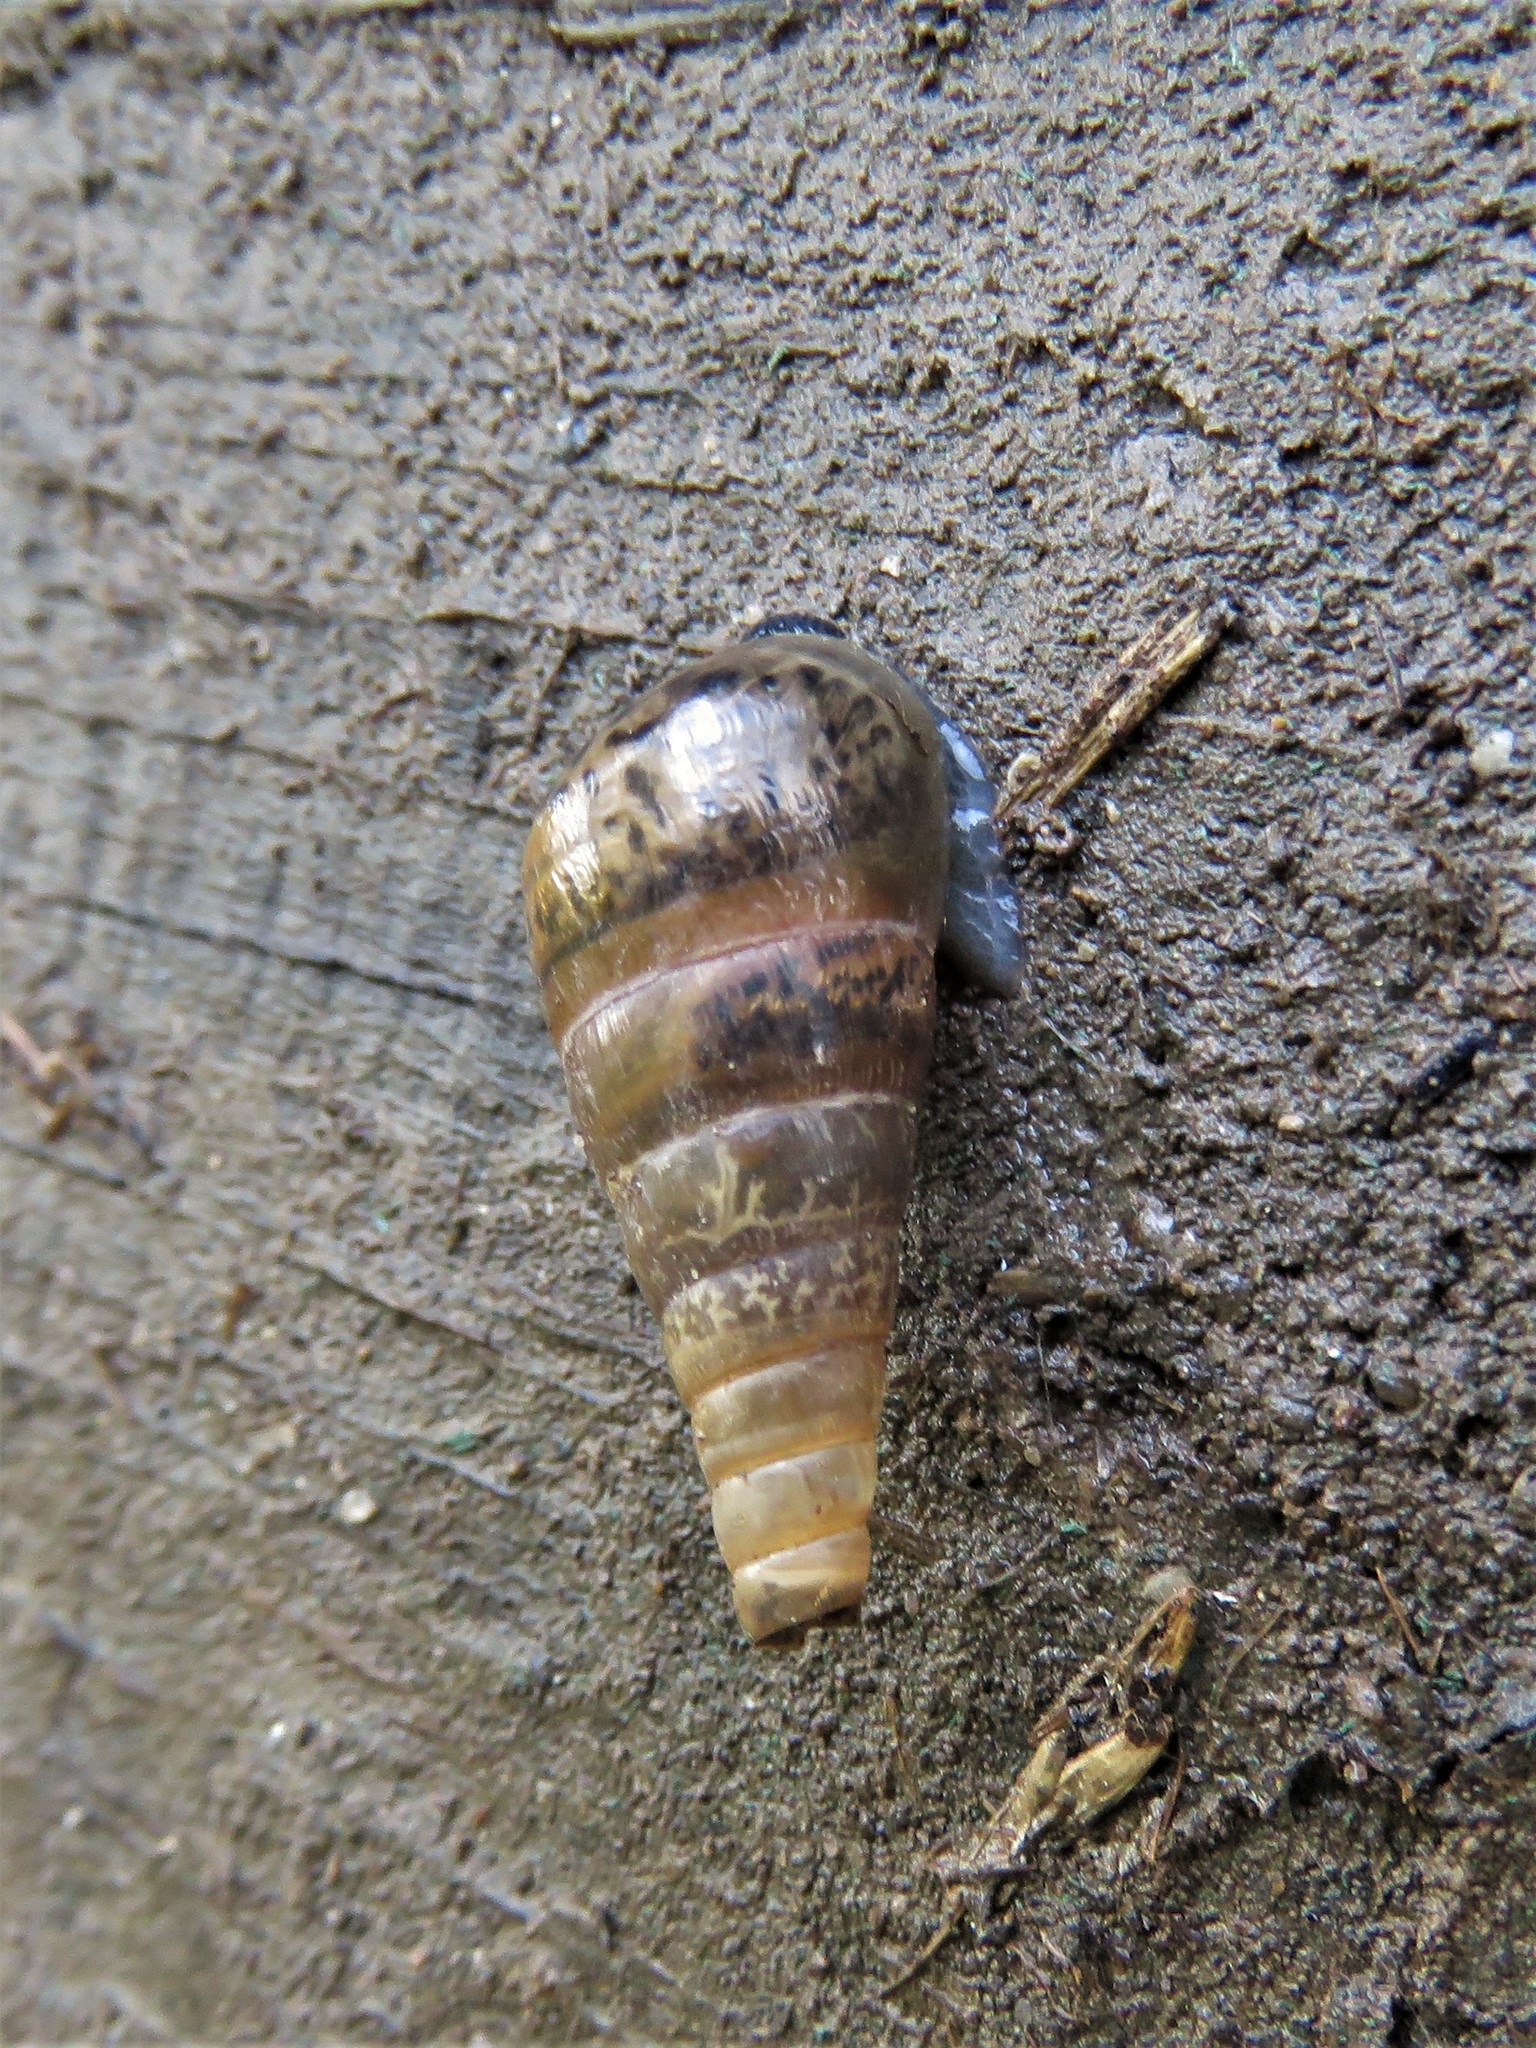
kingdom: Animalia
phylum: Mollusca
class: Gastropoda
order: Stylommatophora
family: Achatinidae
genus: Rumina
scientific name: Rumina decollata
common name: Decollate snail
